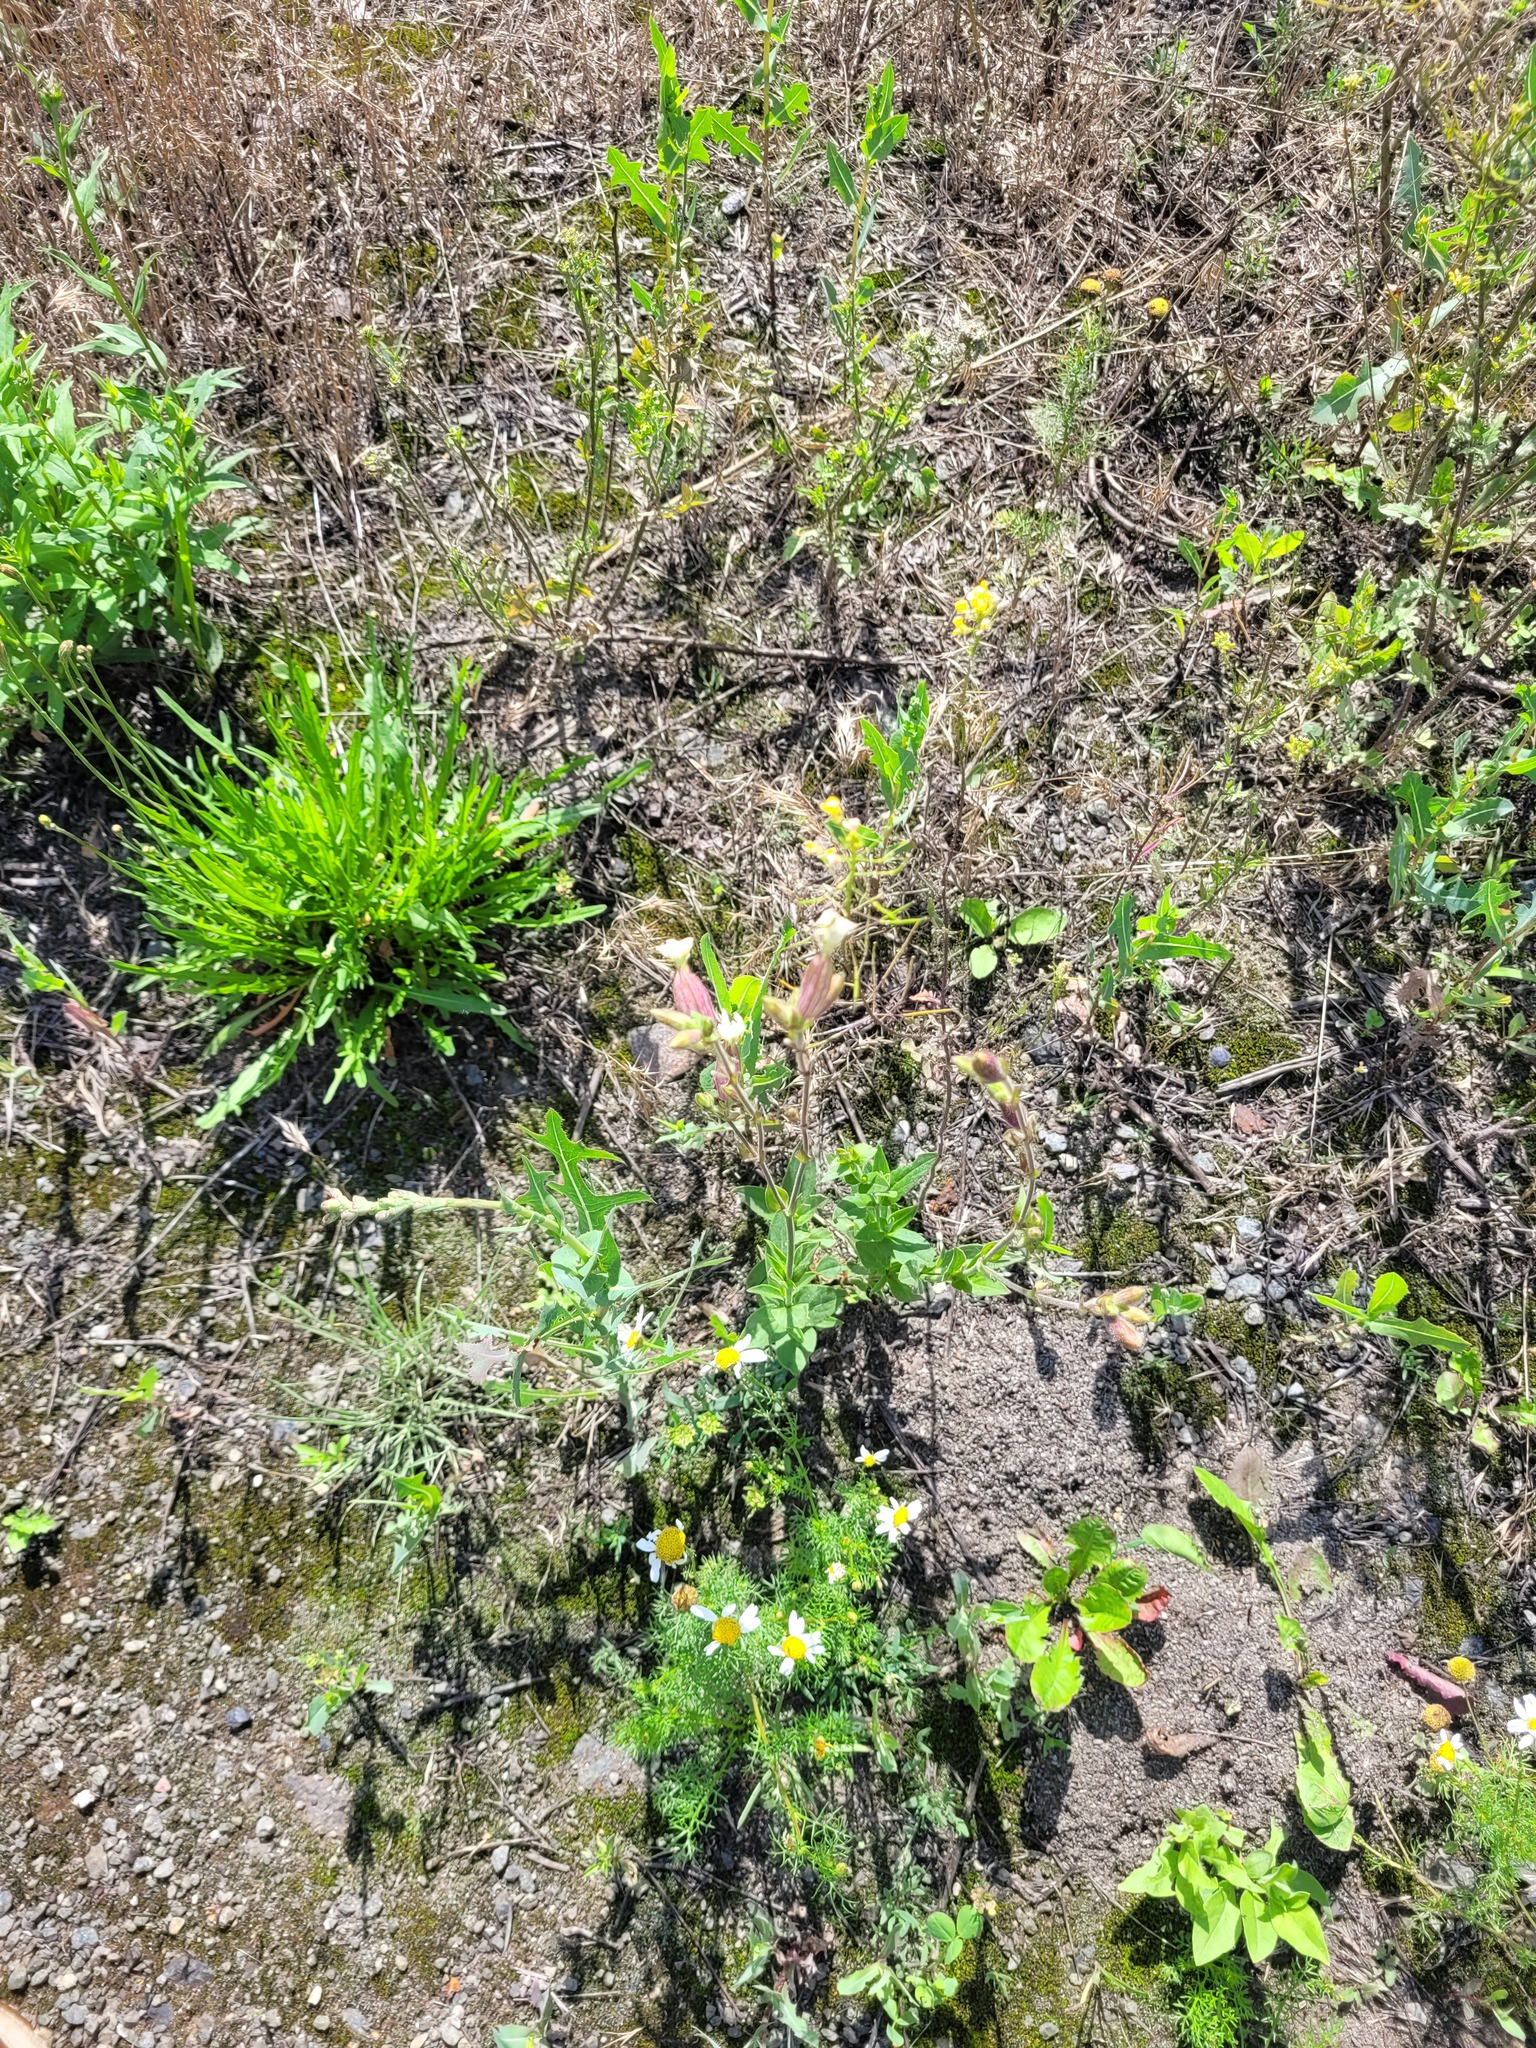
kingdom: Plantae
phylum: Tracheophyta
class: Magnoliopsida
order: Caryophyllales
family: Caryophyllaceae
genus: Silene
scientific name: Silene latifolia
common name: White campion
